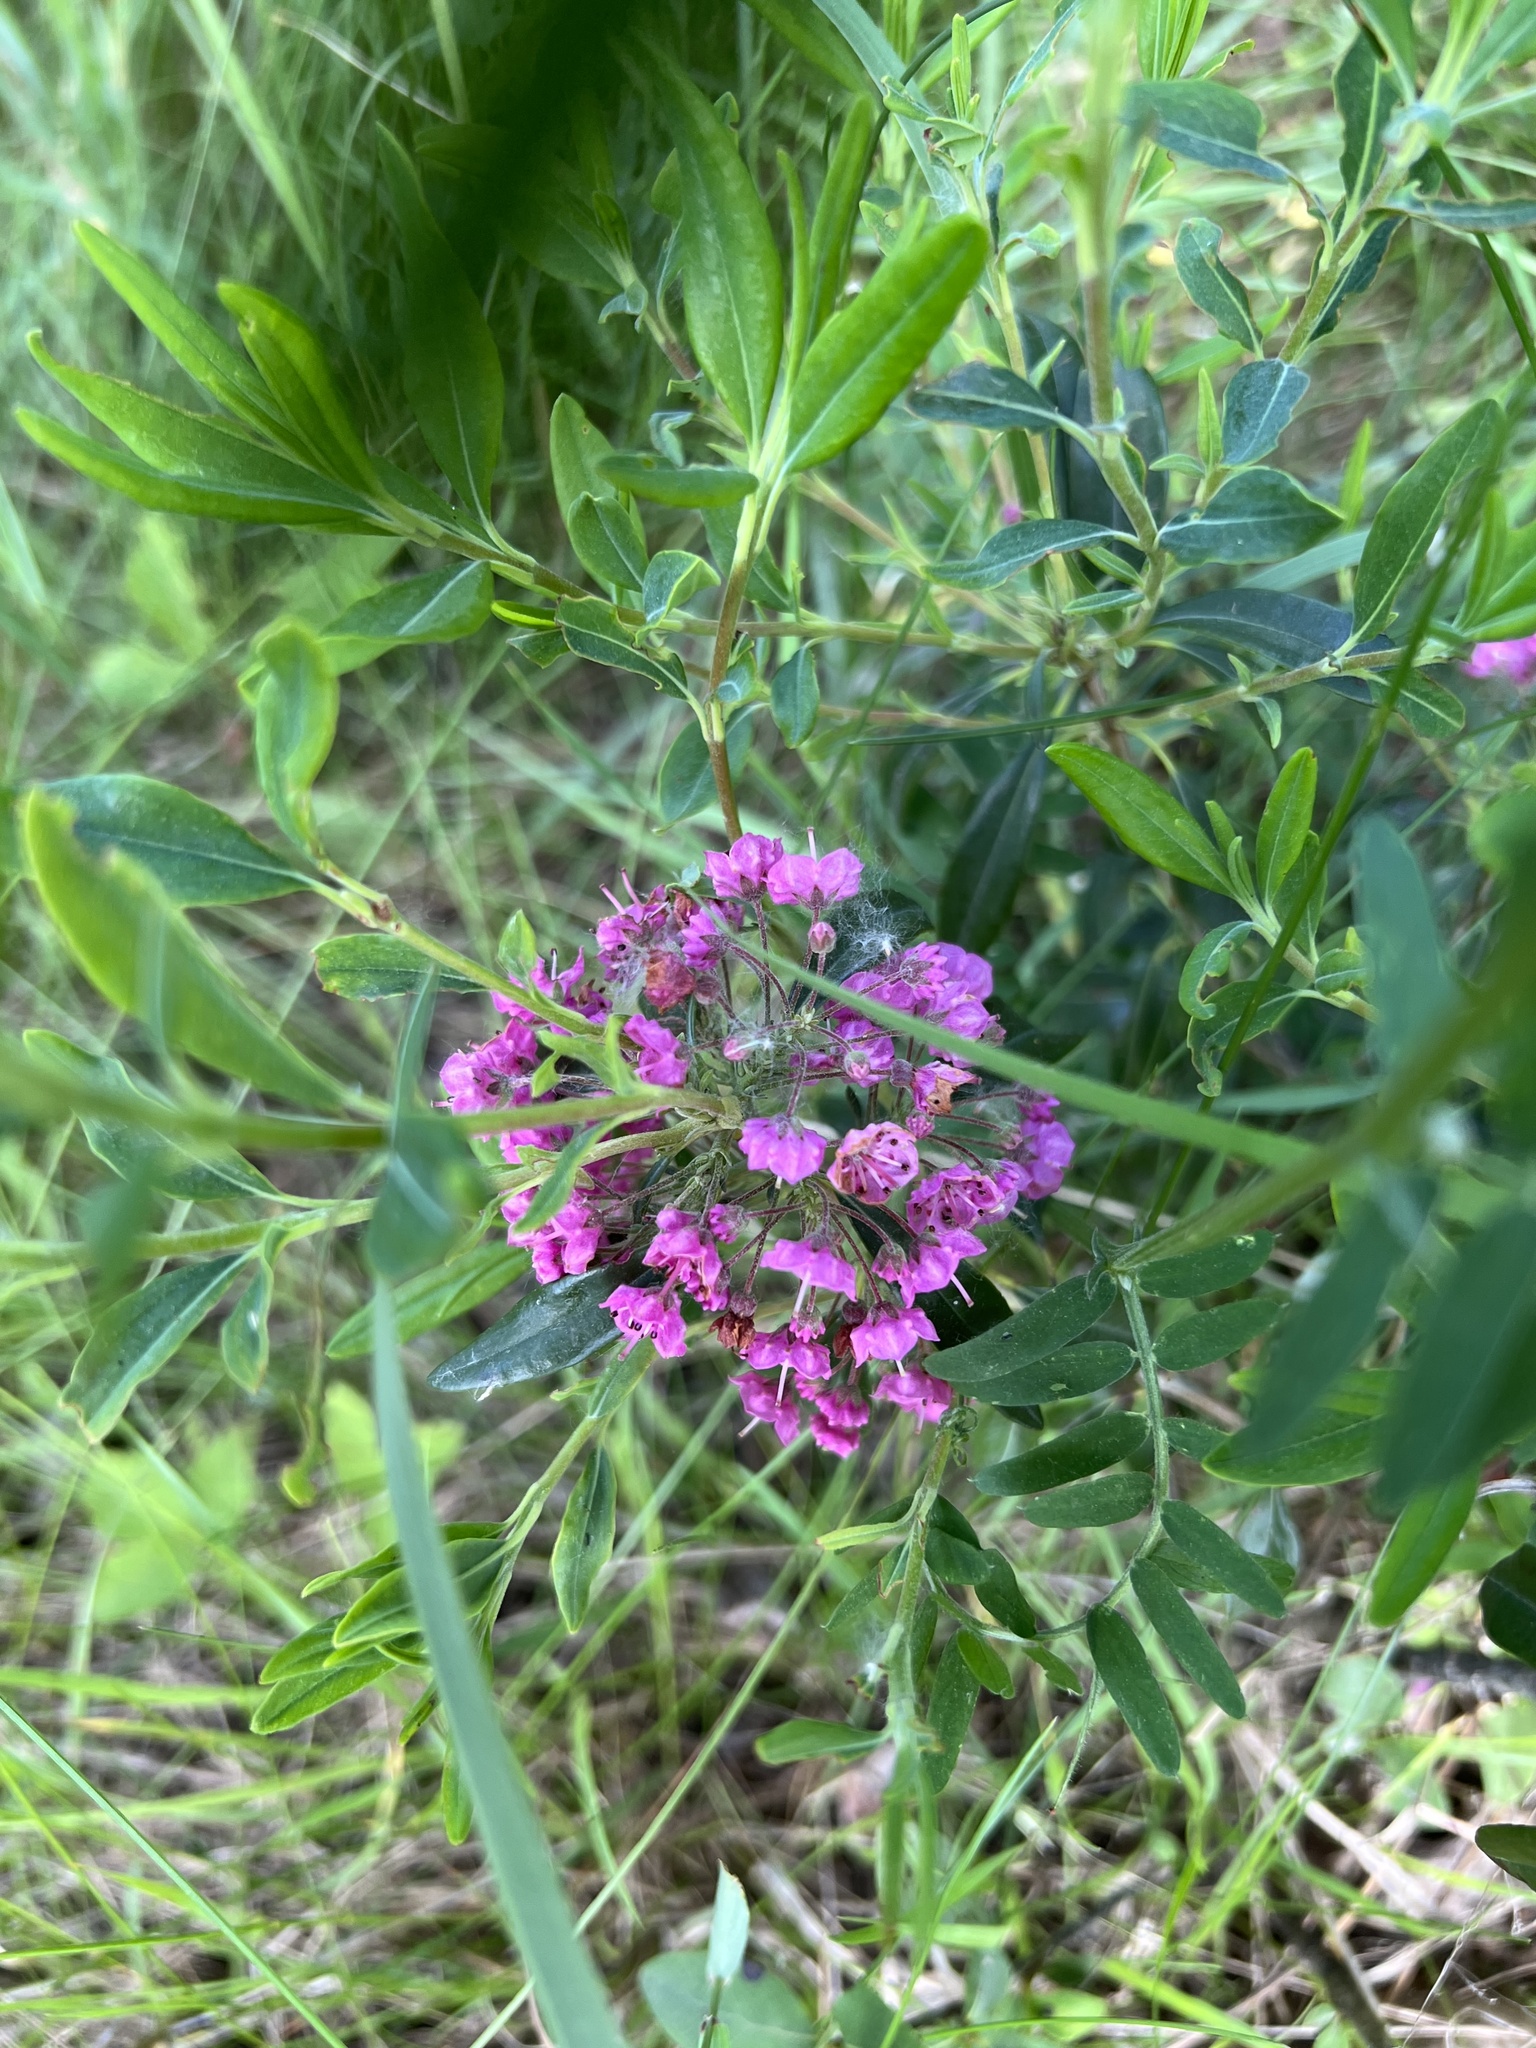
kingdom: Plantae
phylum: Tracheophyta
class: Magnoliopsida
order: Ericales
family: Ericaceae
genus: Kalmia
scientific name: Kalmia angustifolia
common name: Sheep-laurel
